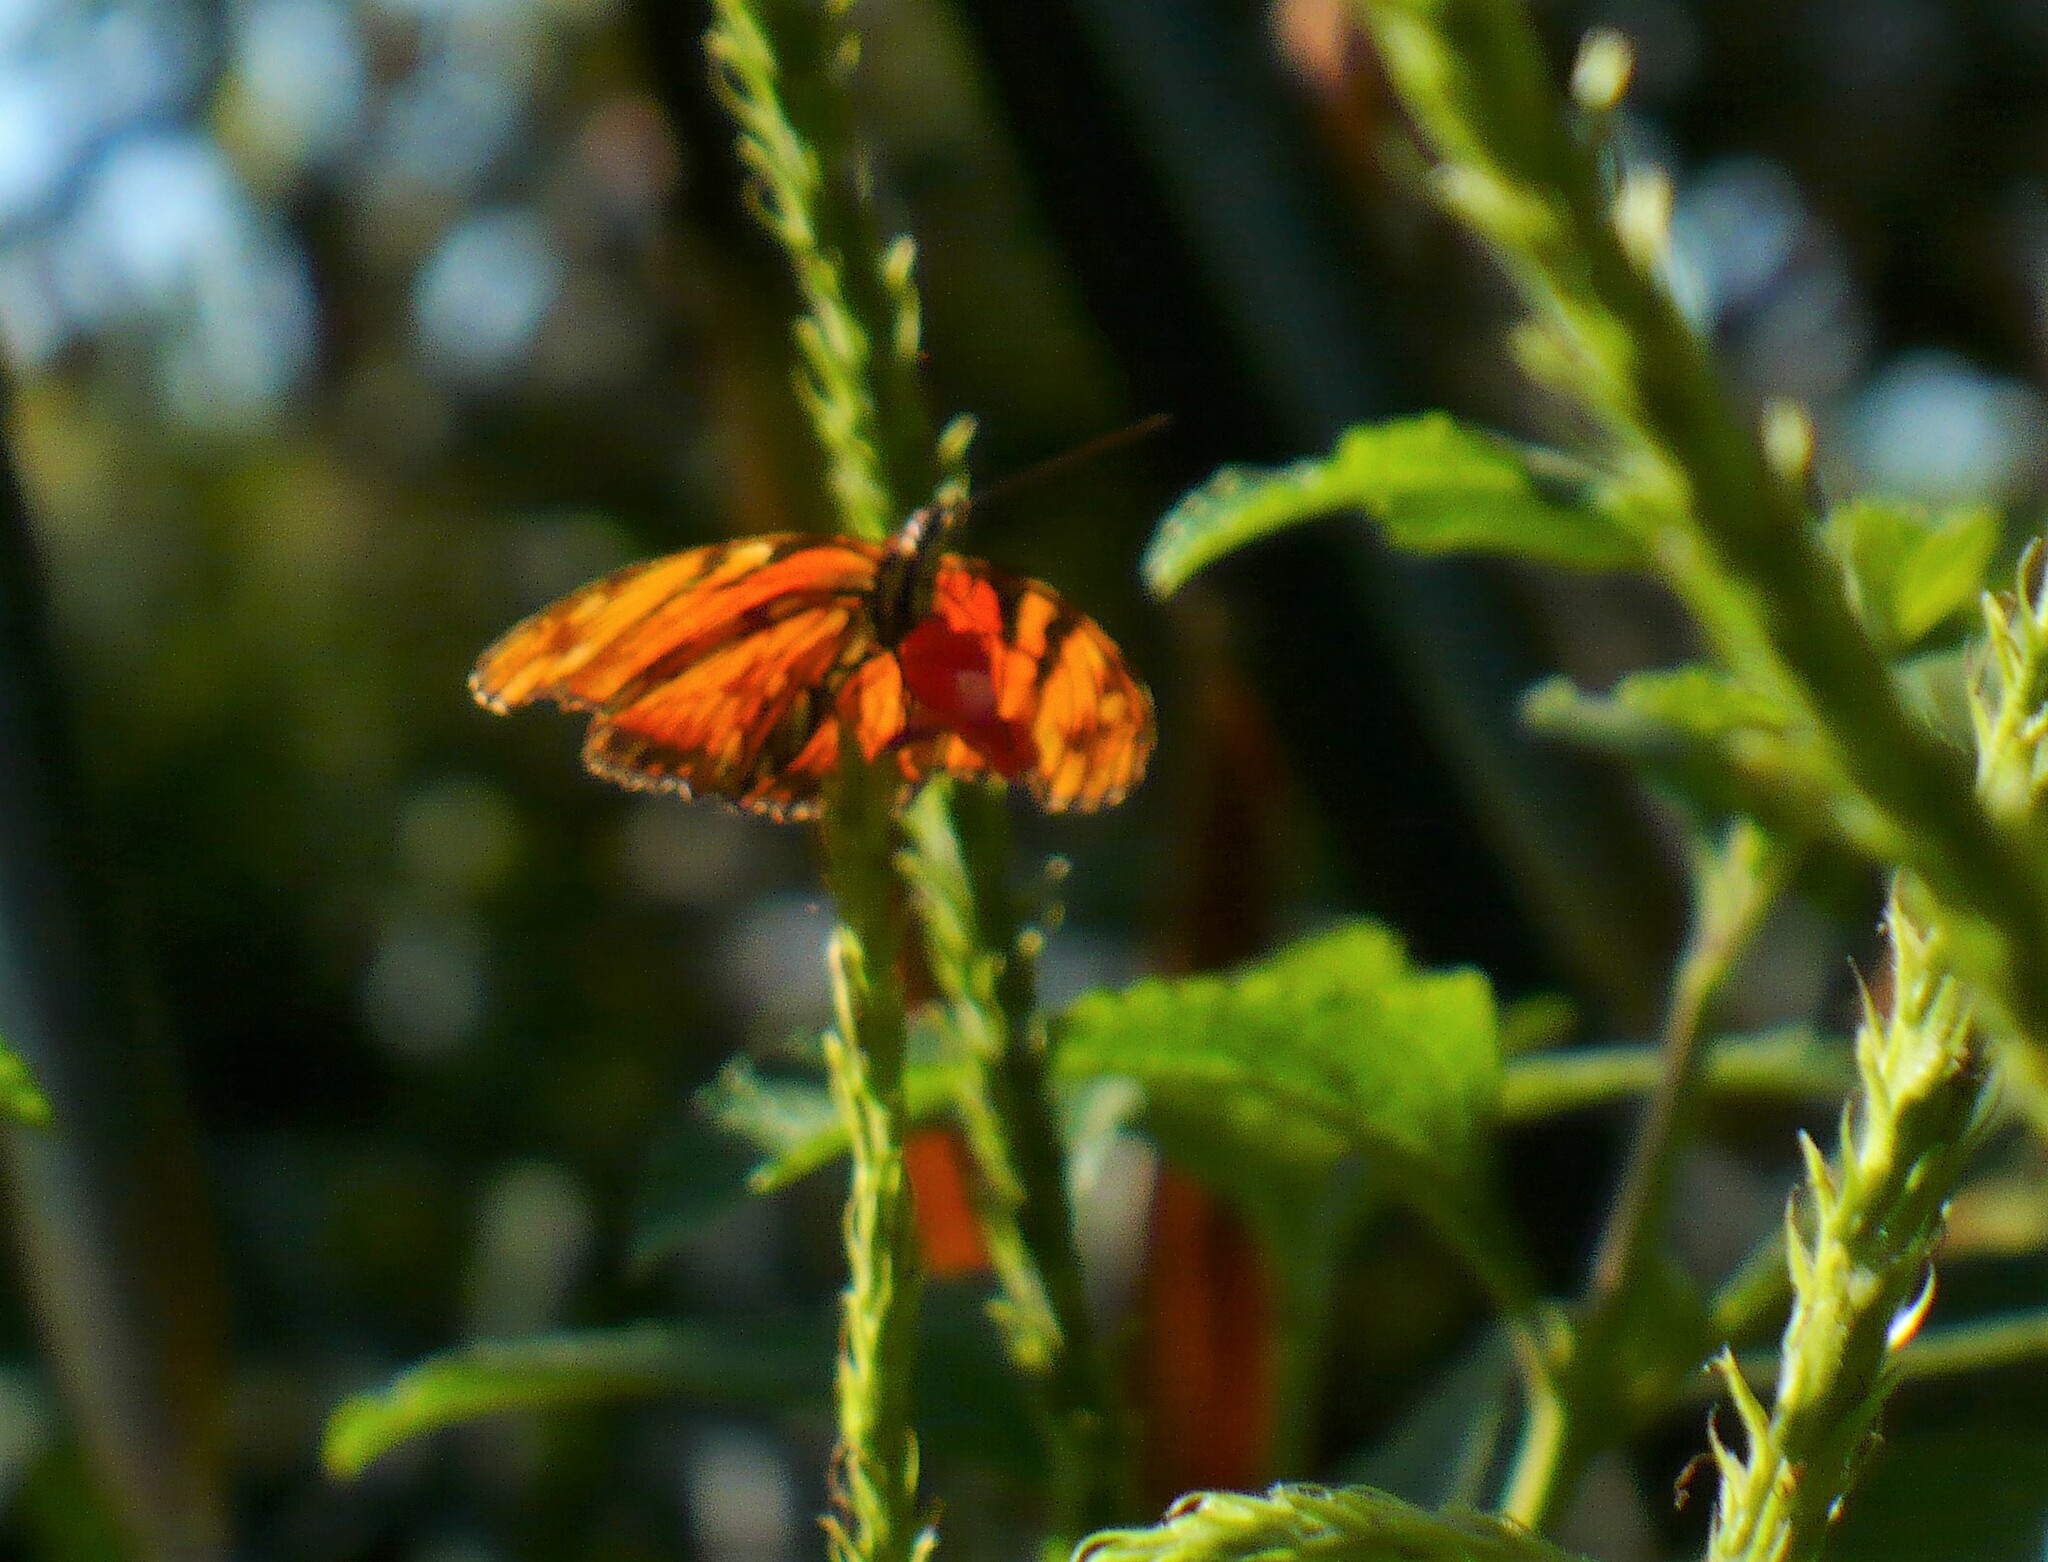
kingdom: Animalia
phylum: Arthropoda
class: Insecta
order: Lepidoptera
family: Nymphalidae
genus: Dione
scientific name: Dione juno
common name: Juno silverspot
